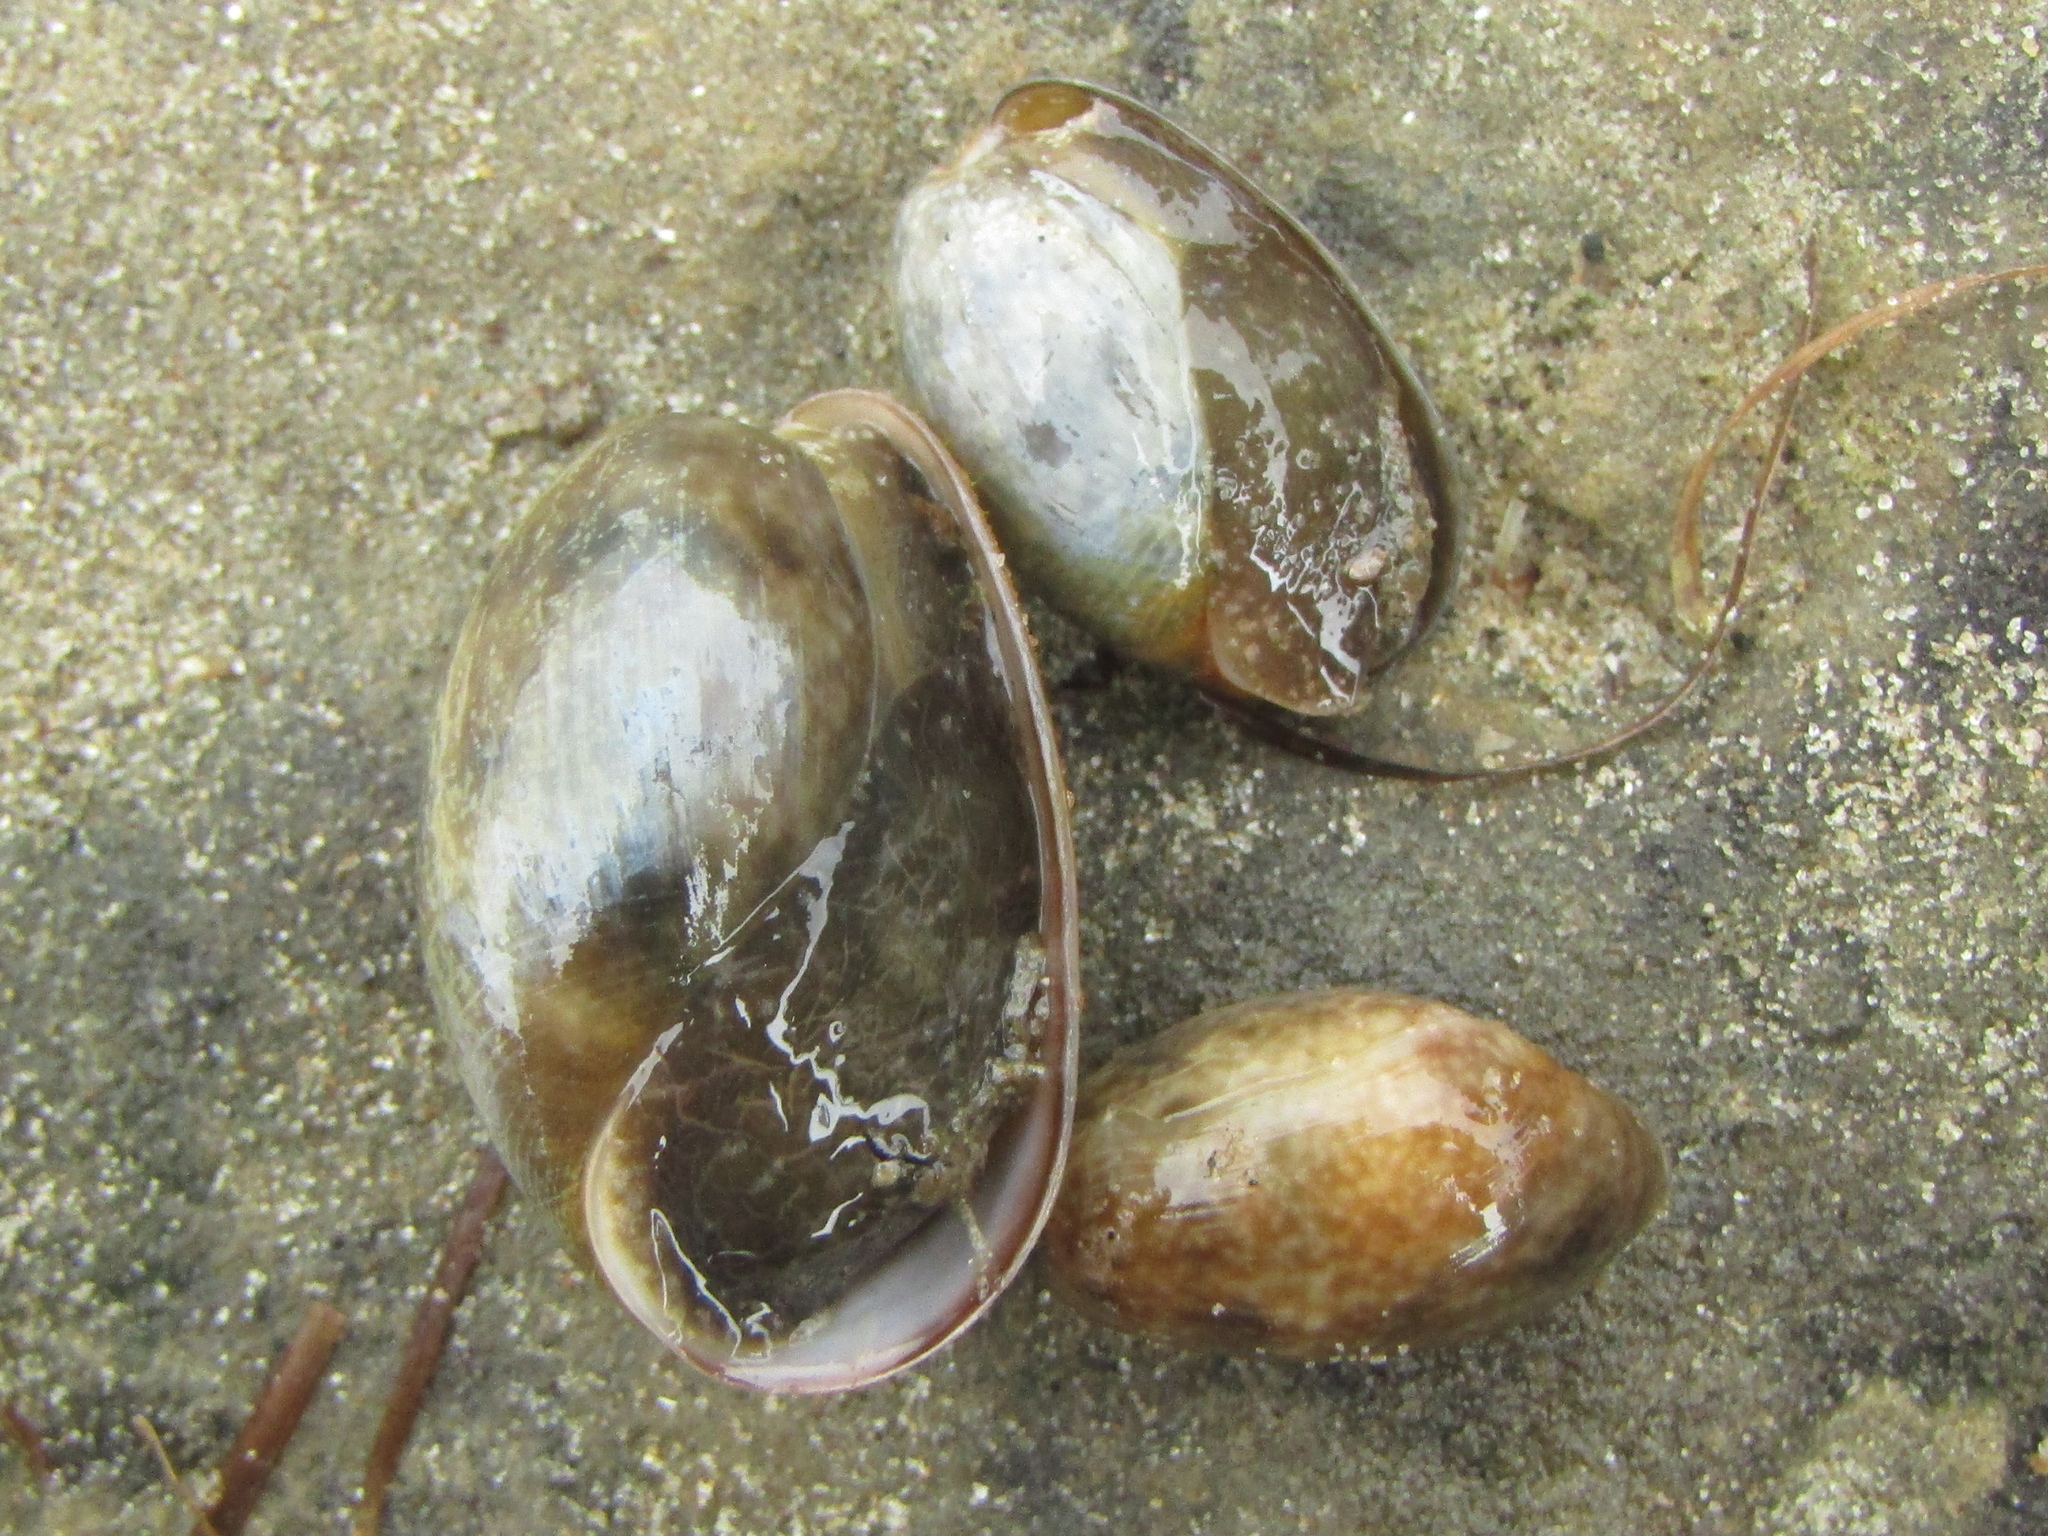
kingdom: Animalia
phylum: Mollusca
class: Gastropoda
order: Cephalaspidea
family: Bullidae
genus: Bulla
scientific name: Bulla quoyii
